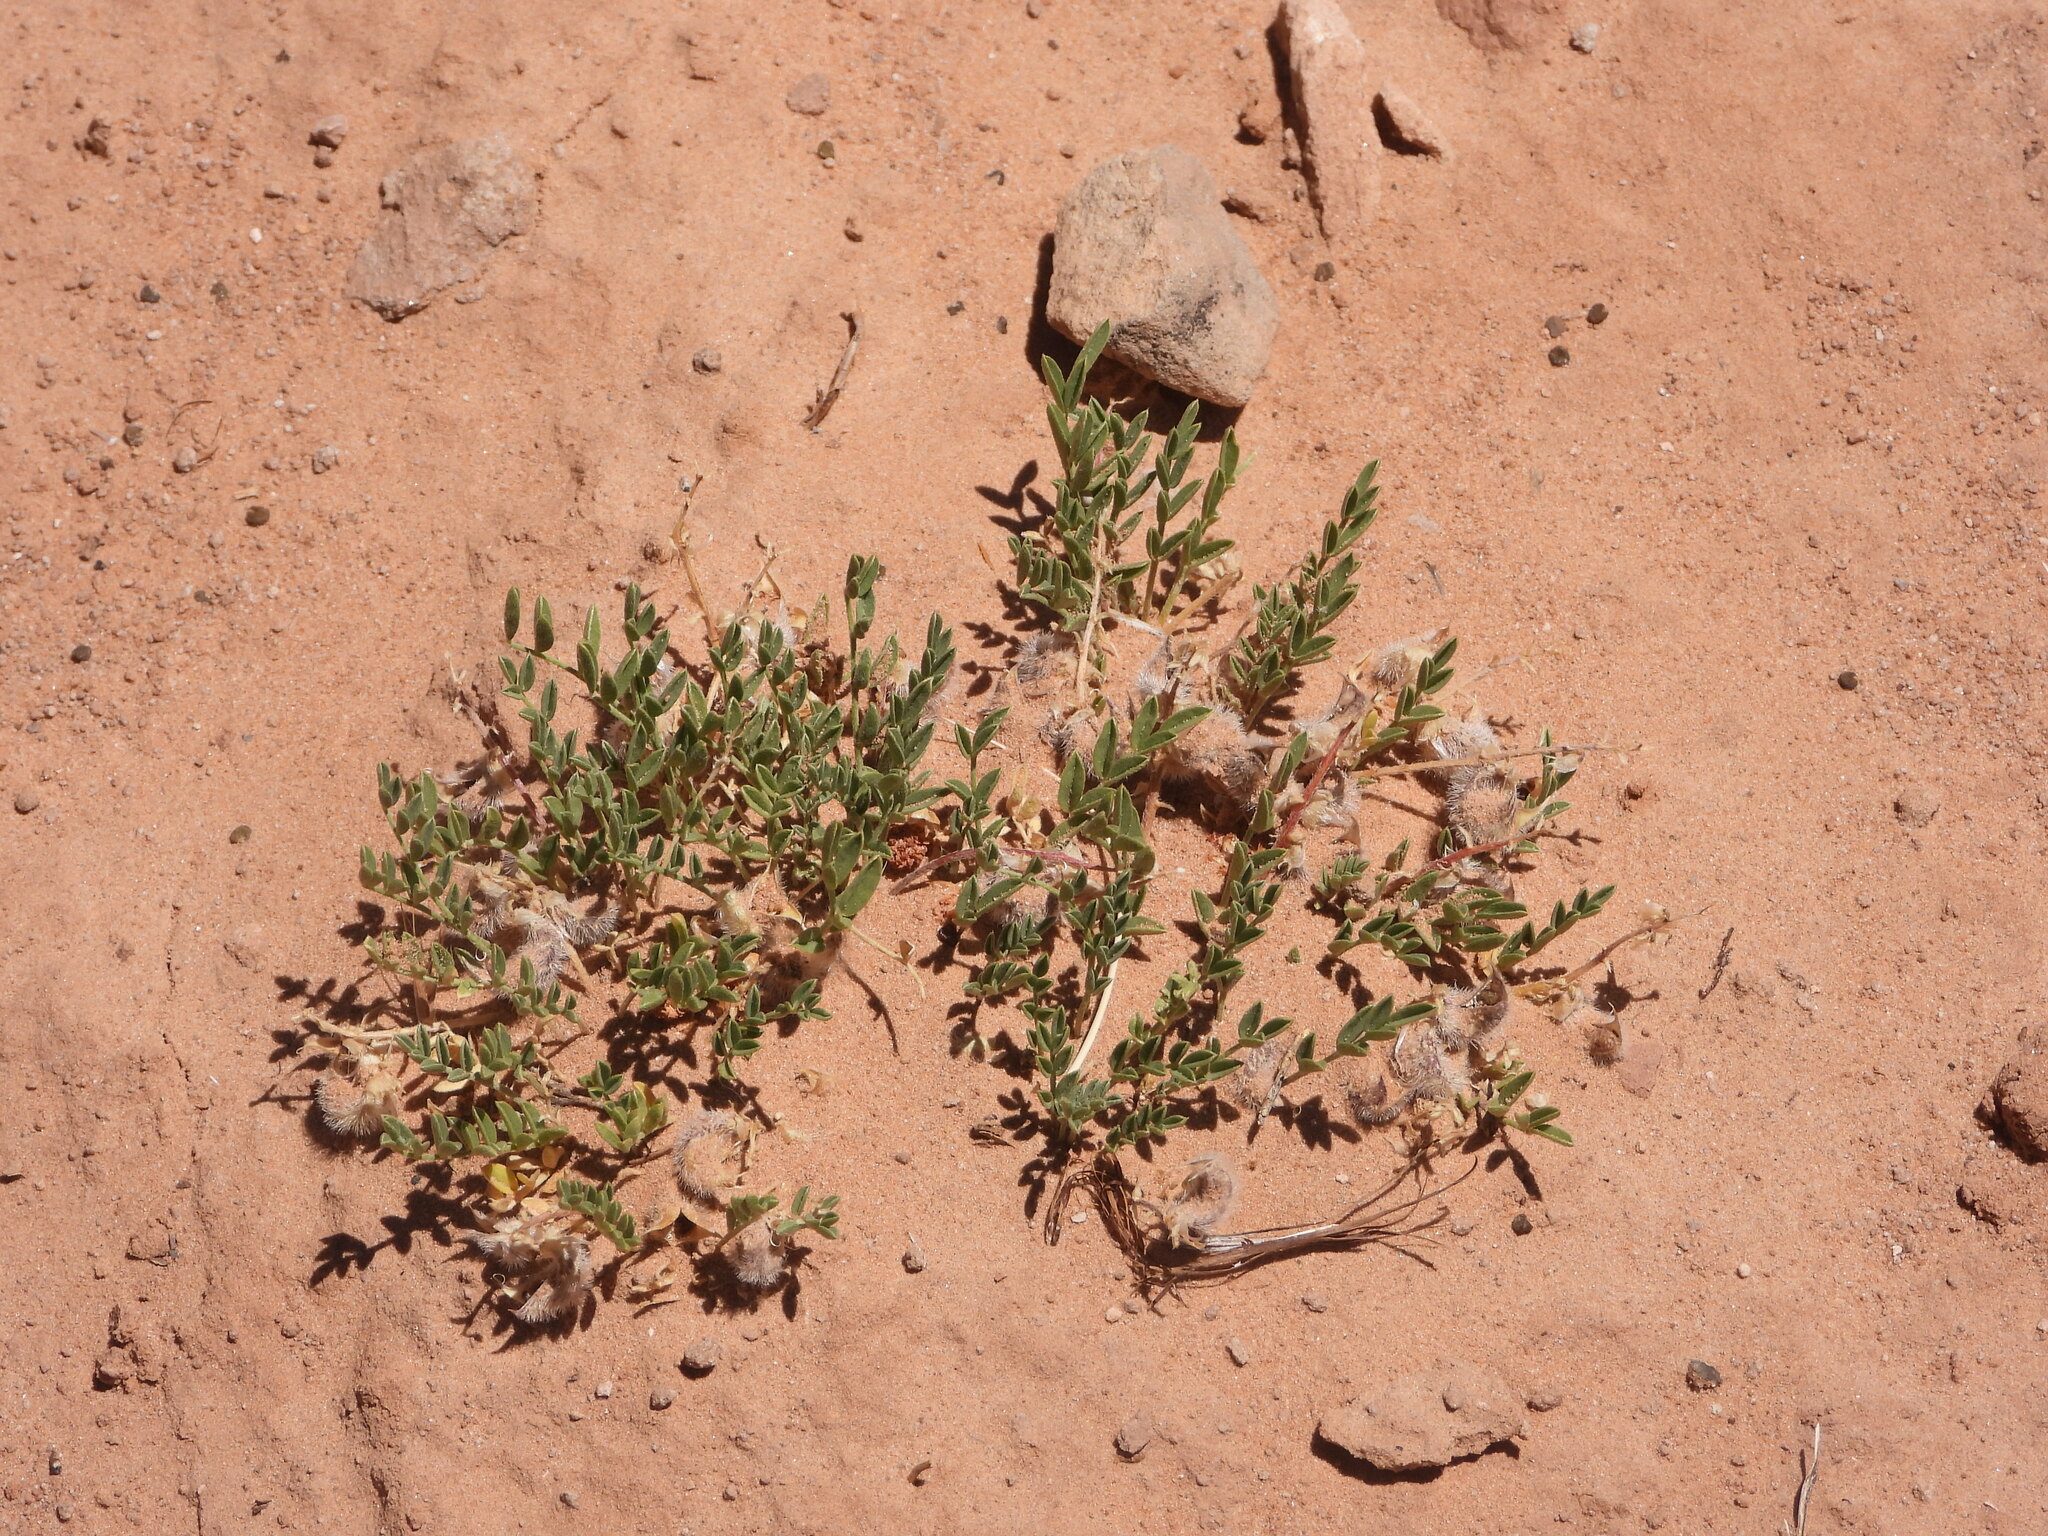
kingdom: Plantae
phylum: Tracheophyta
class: Magnoliopsida
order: Fabales
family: Fabaceae
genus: Astragalus
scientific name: Astragalus desperatus
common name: Rimrock milk-vetch
